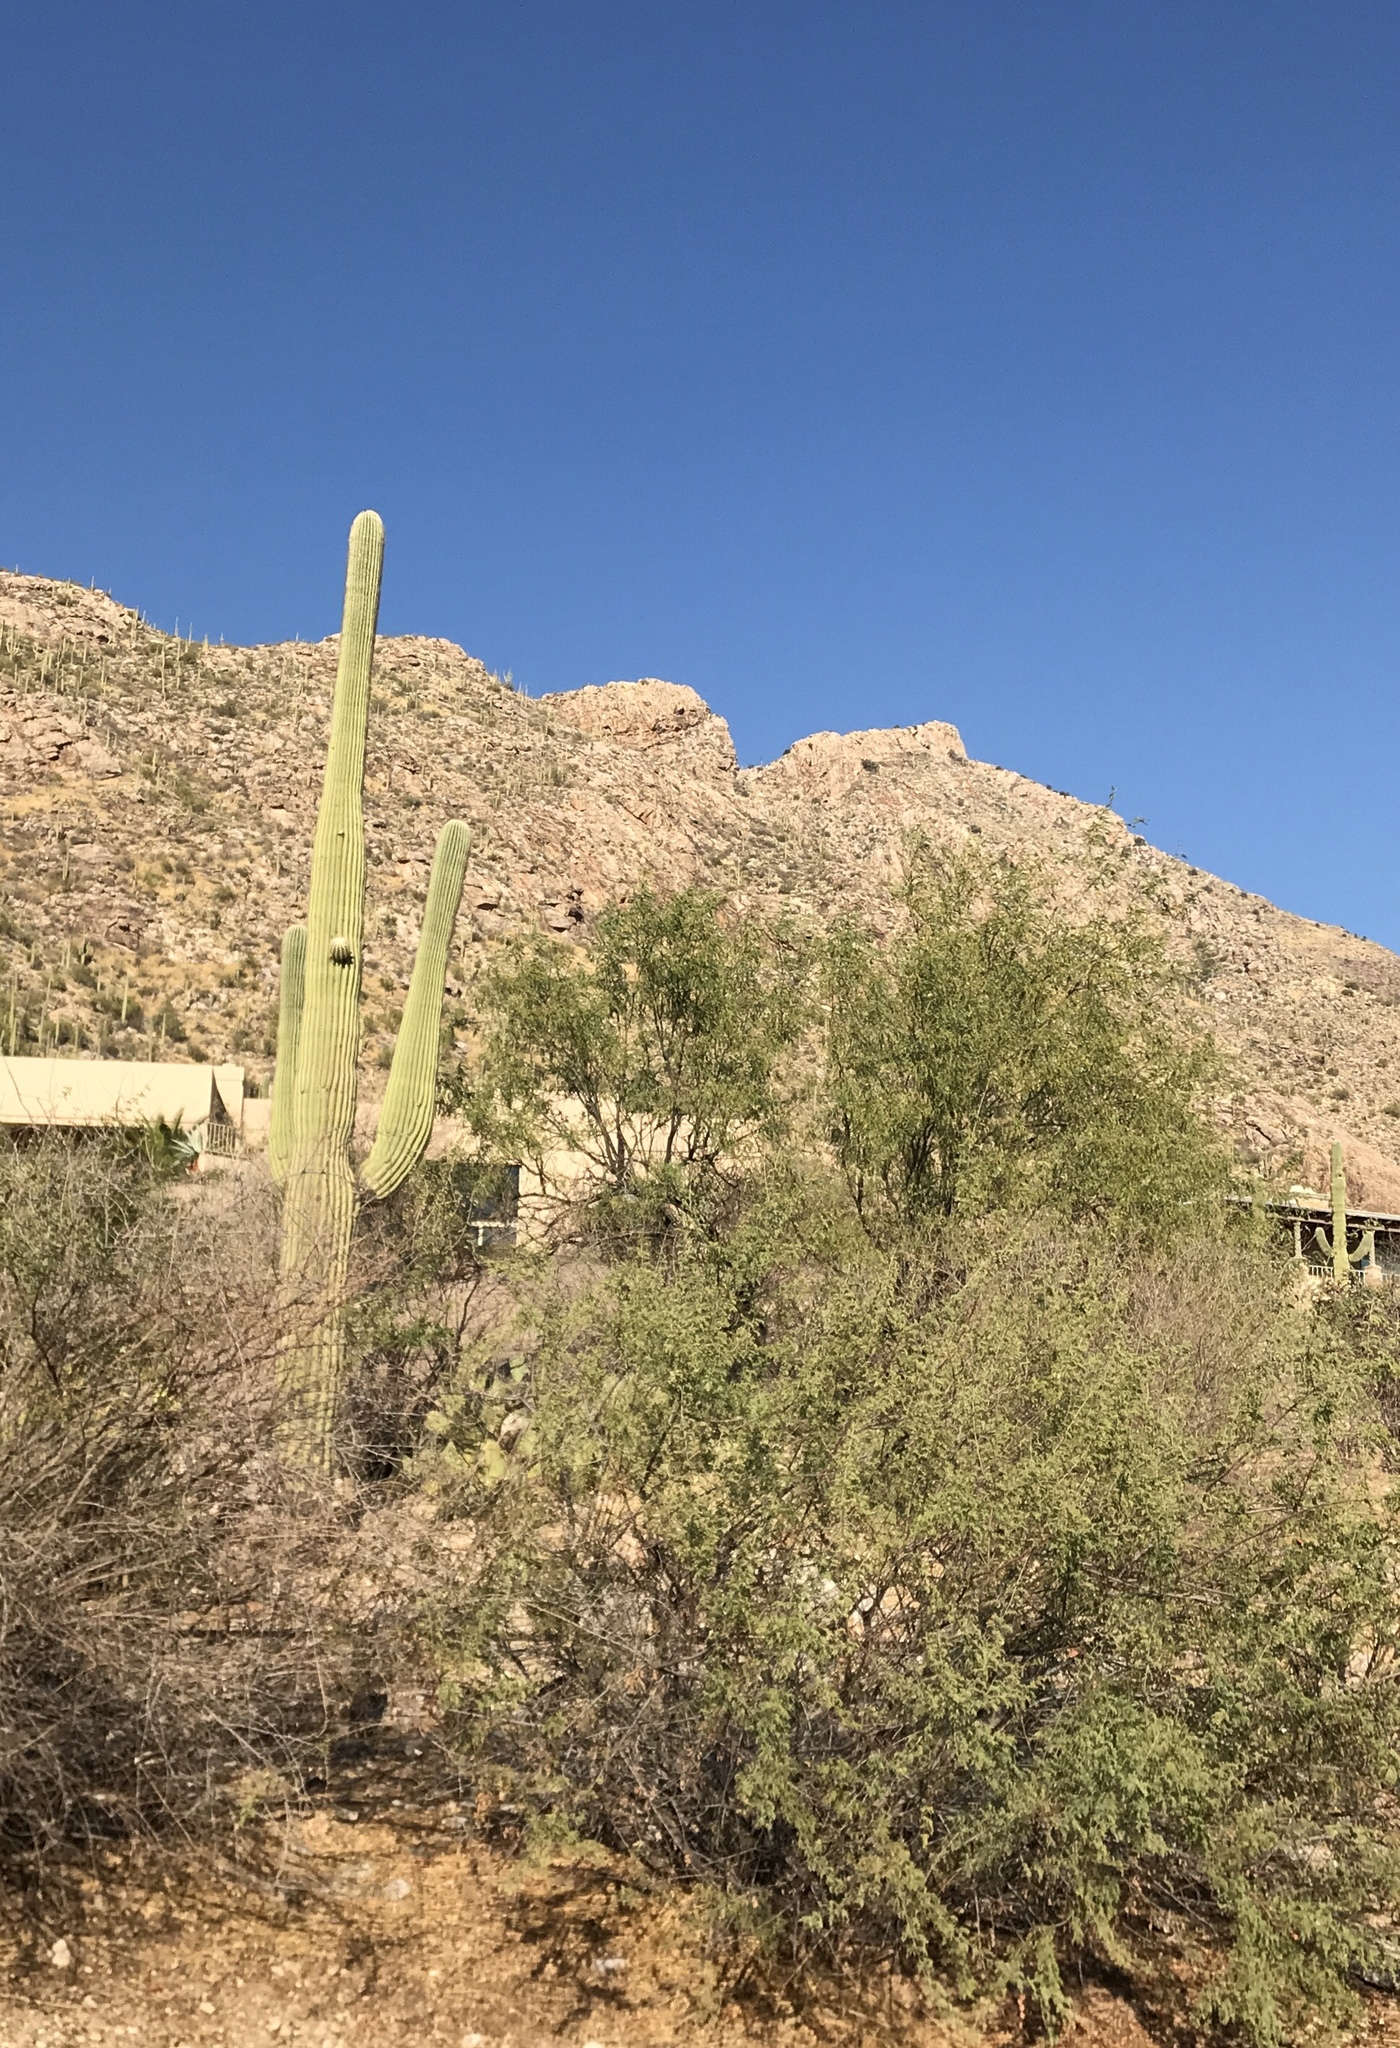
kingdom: Plantae
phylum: Tracheophyta
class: Magnoliopsida
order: Caryophyllales
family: Cactaceae
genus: Carnegiea
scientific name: Carnegiea gigantea
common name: Saguaro
